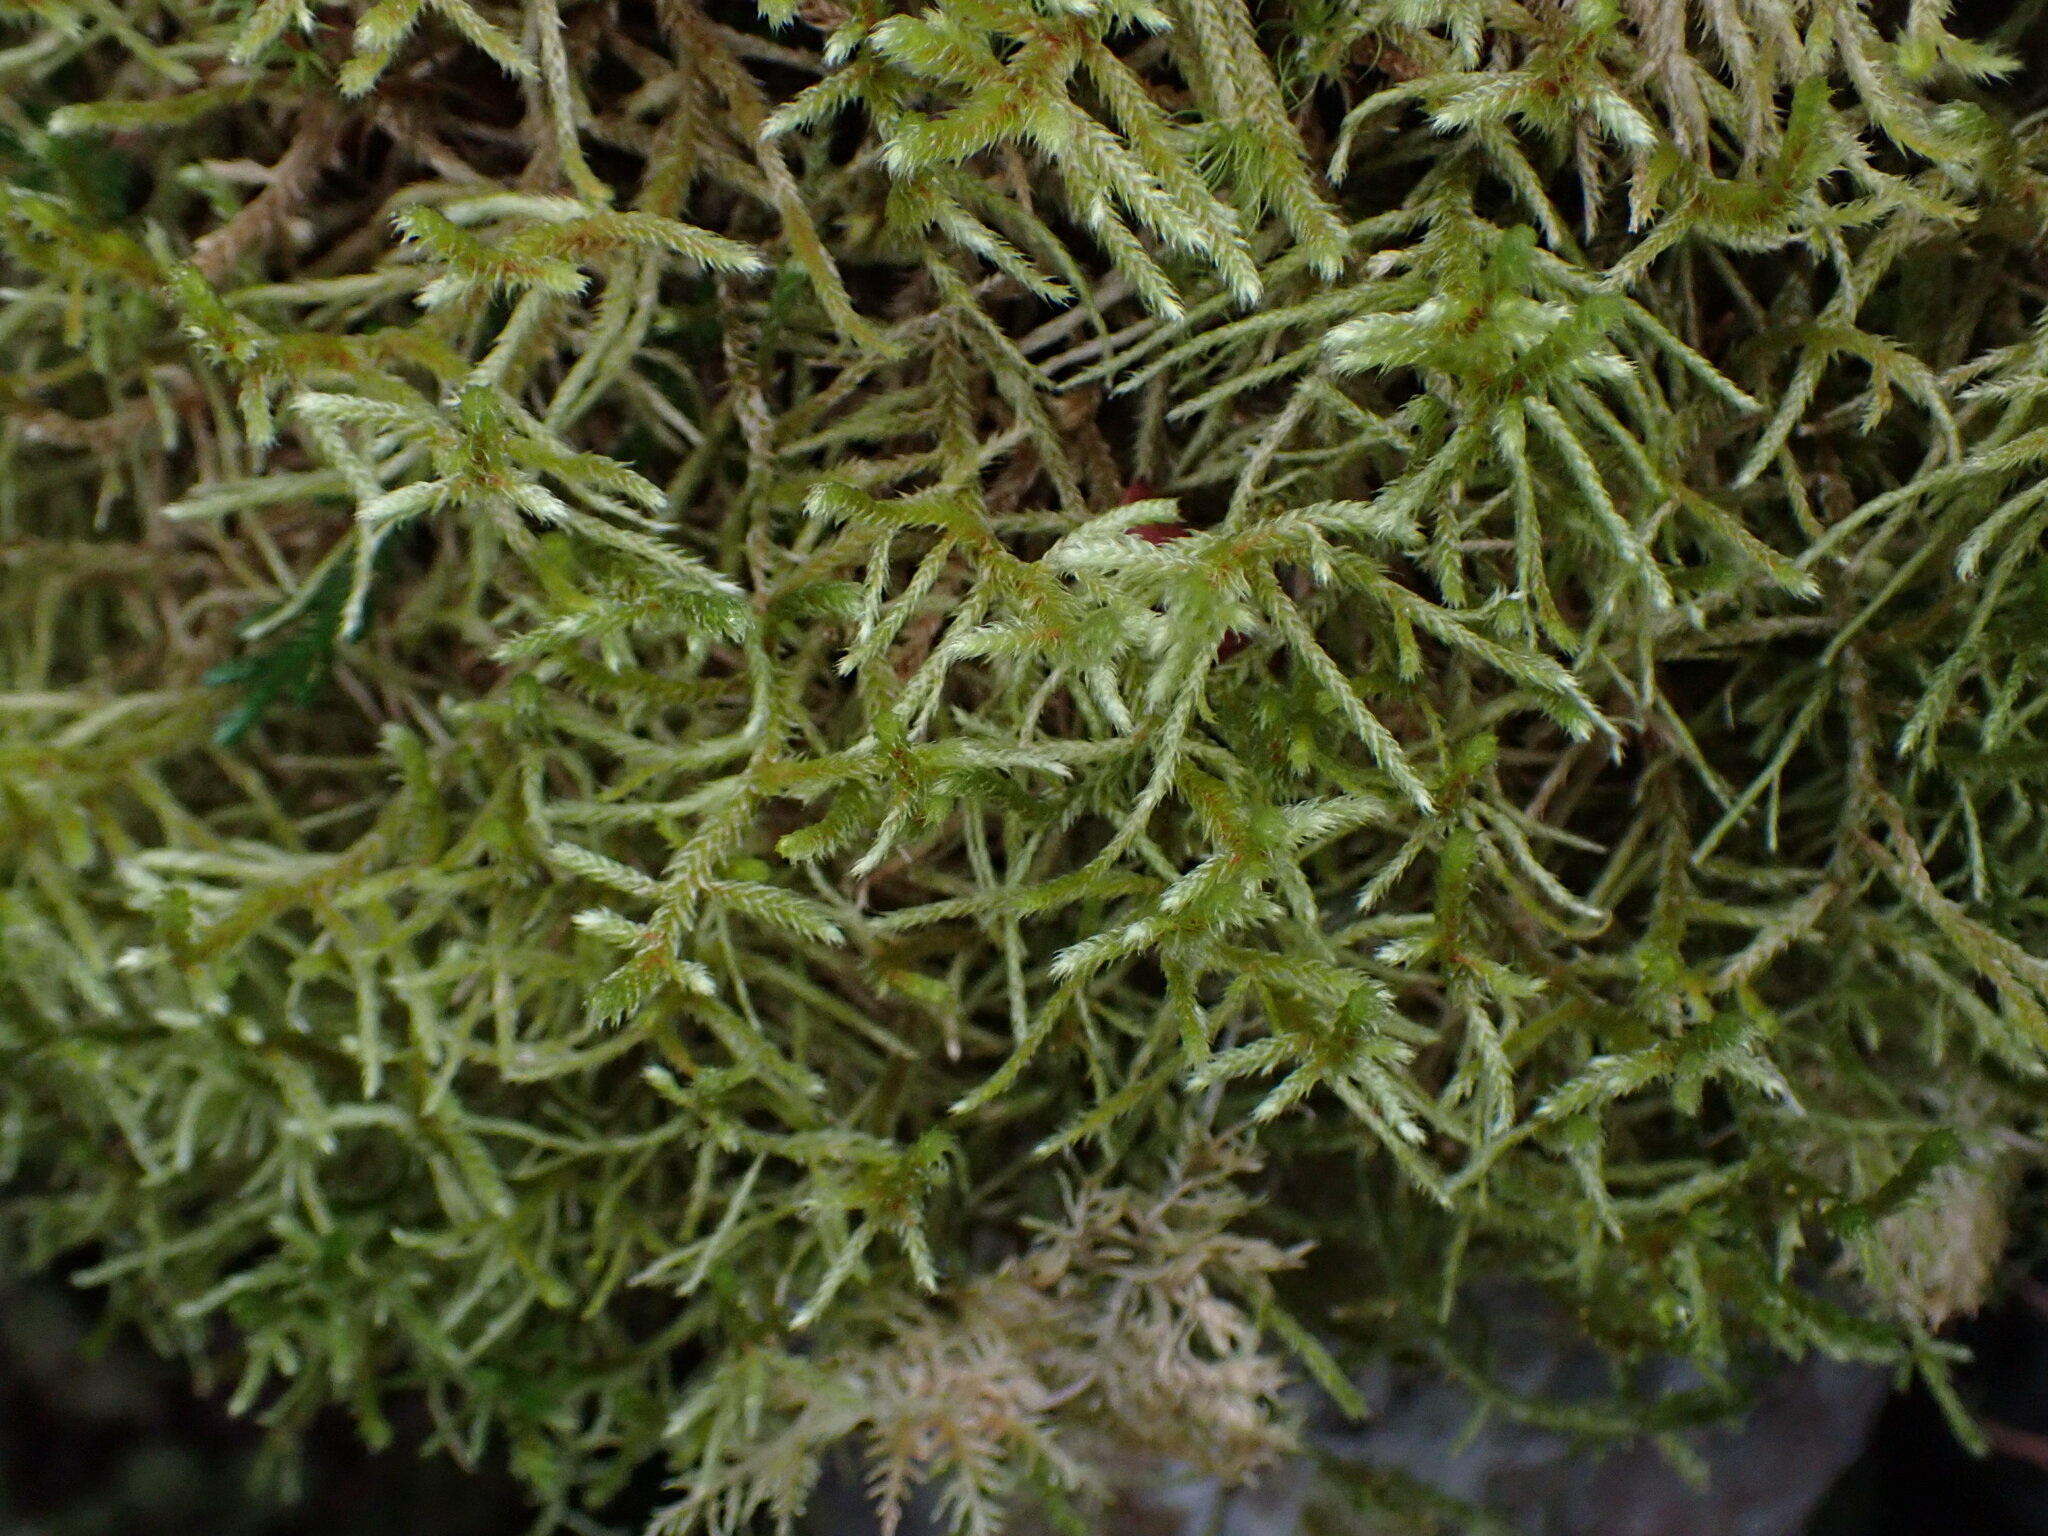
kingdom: Plantae
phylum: Bryophyta
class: Bryopsida
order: Hypnales
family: Antitrichiaceae
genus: Antitrichia
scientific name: Antitrichia curtipendula
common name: Pendulous wing-moss
